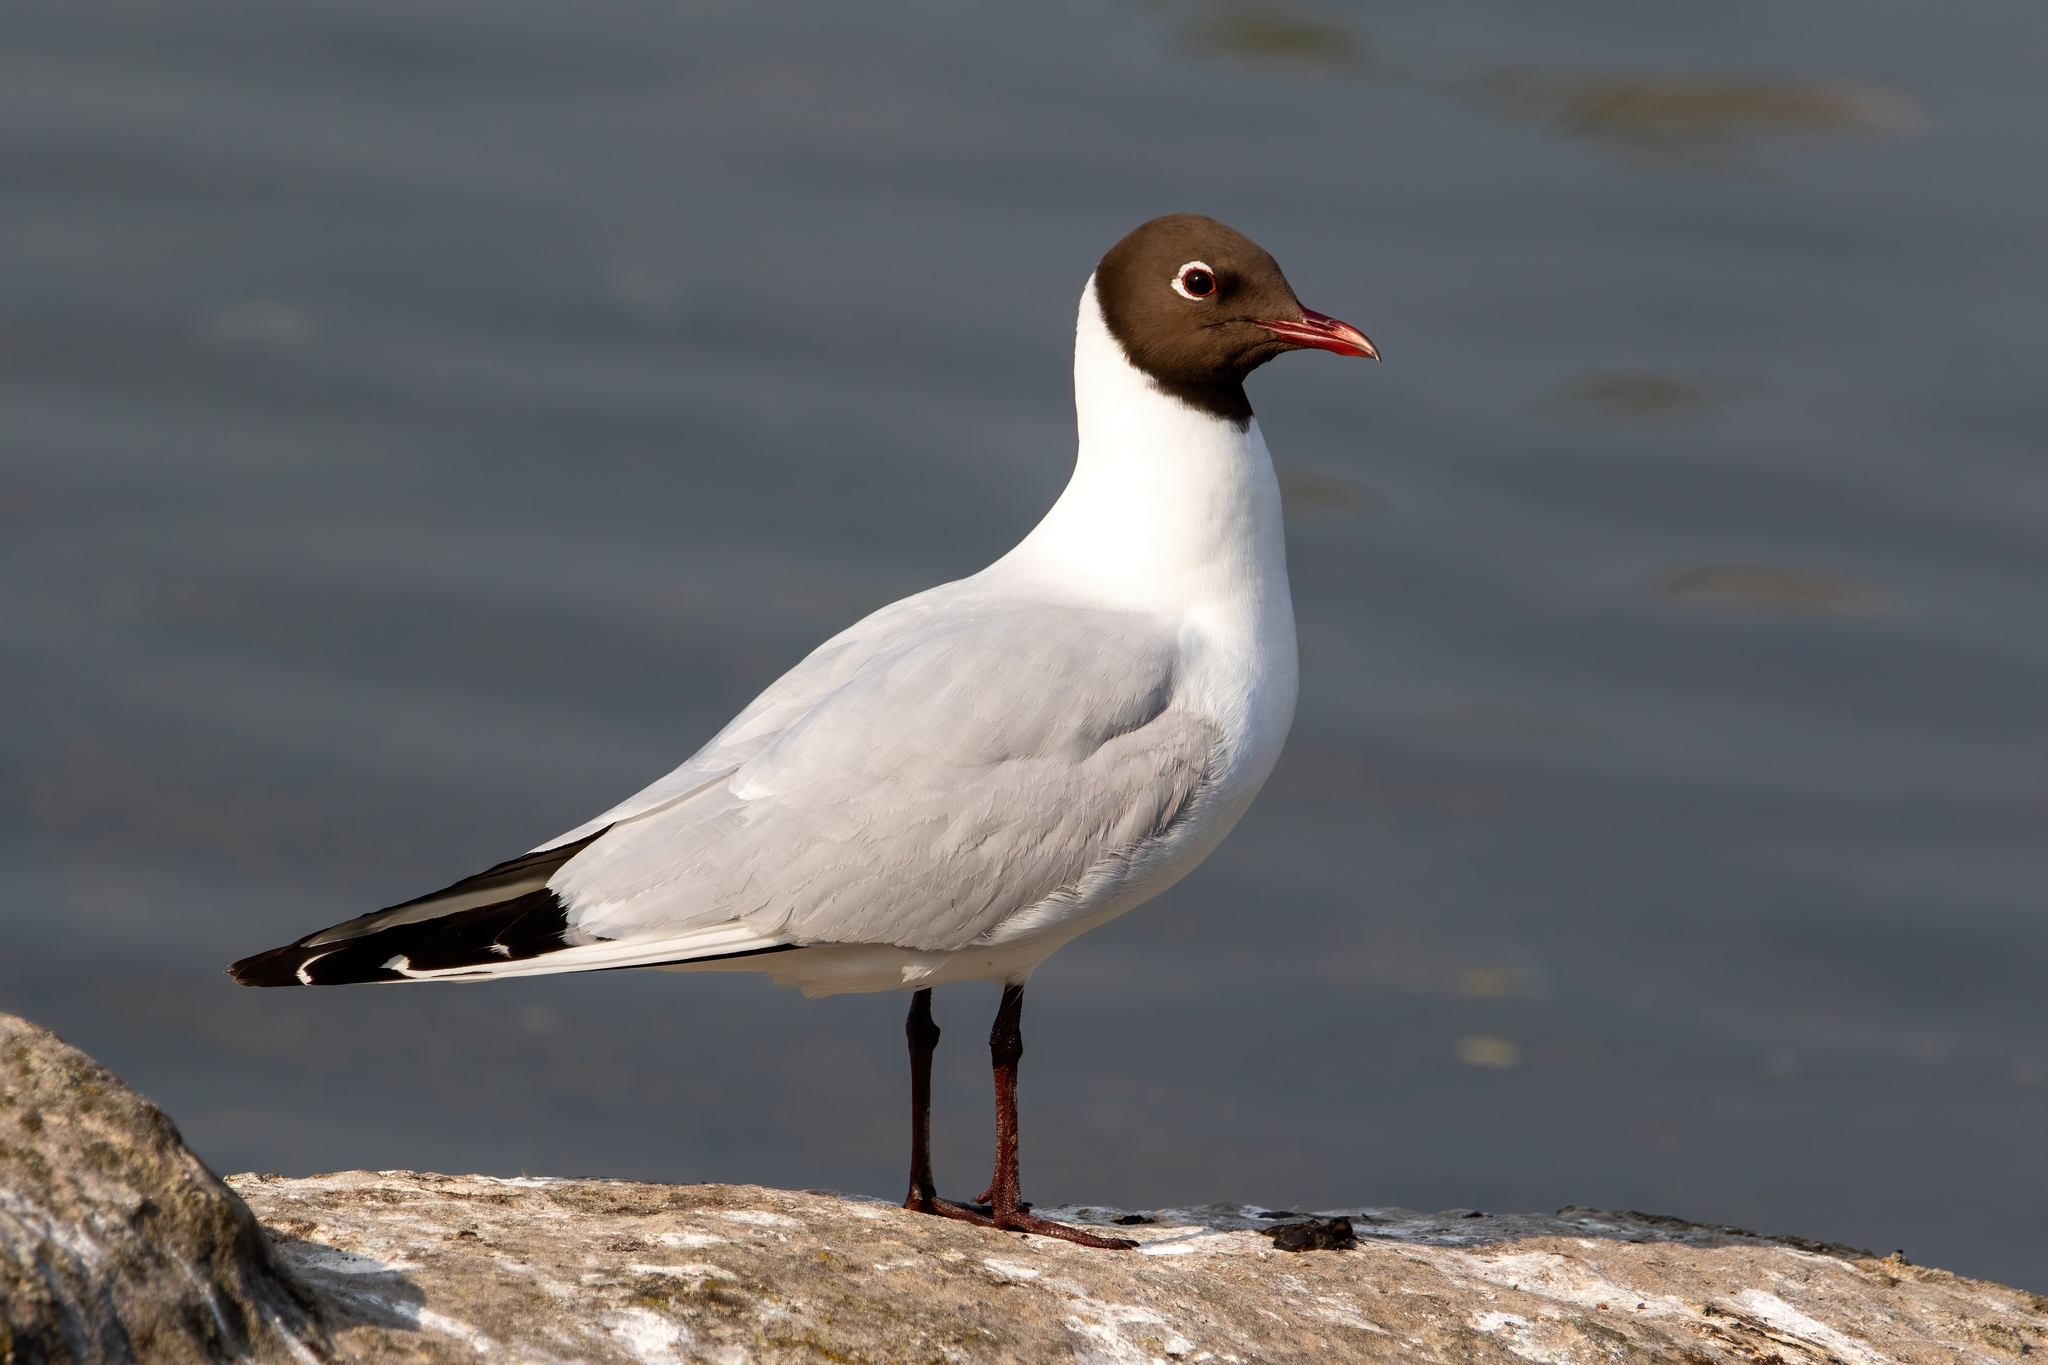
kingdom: Animalia
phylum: Chordata
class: Aves
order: Charadriiformes
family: Laridae
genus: Chroicocephalus
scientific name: Chroicocephalus ridibundus
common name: Black-headed gull
